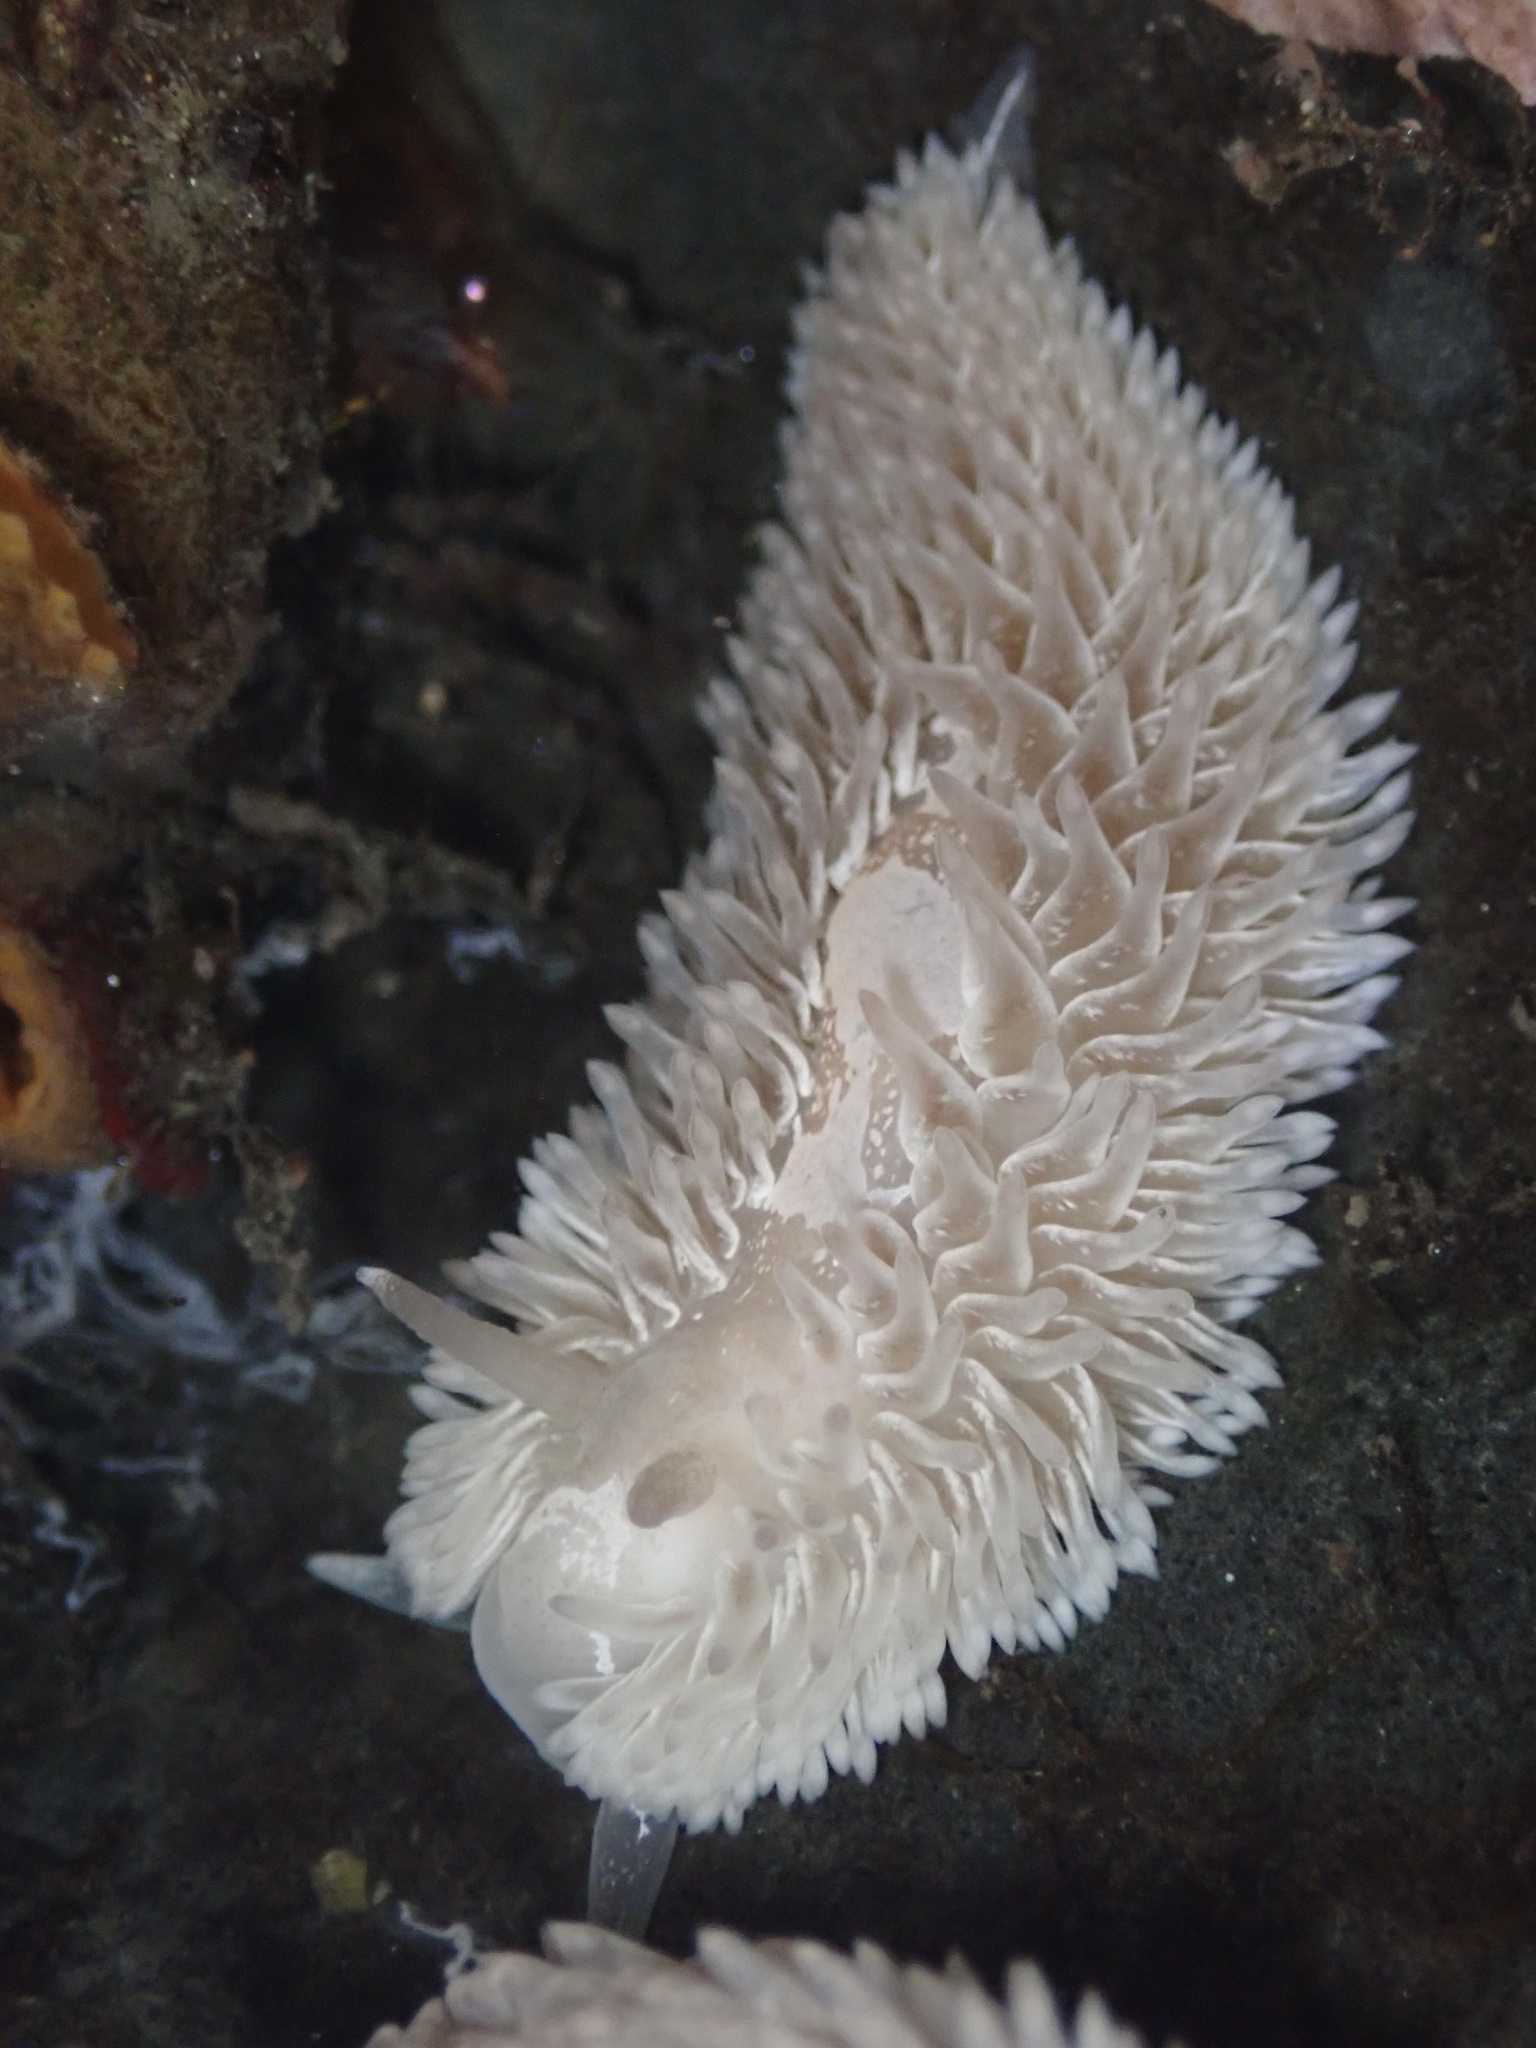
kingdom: Animalia
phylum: Mollusca
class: Gastropoda
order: Nudibranchia
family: Aeolidiidae
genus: Aeolidia
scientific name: Aeolidia loui
